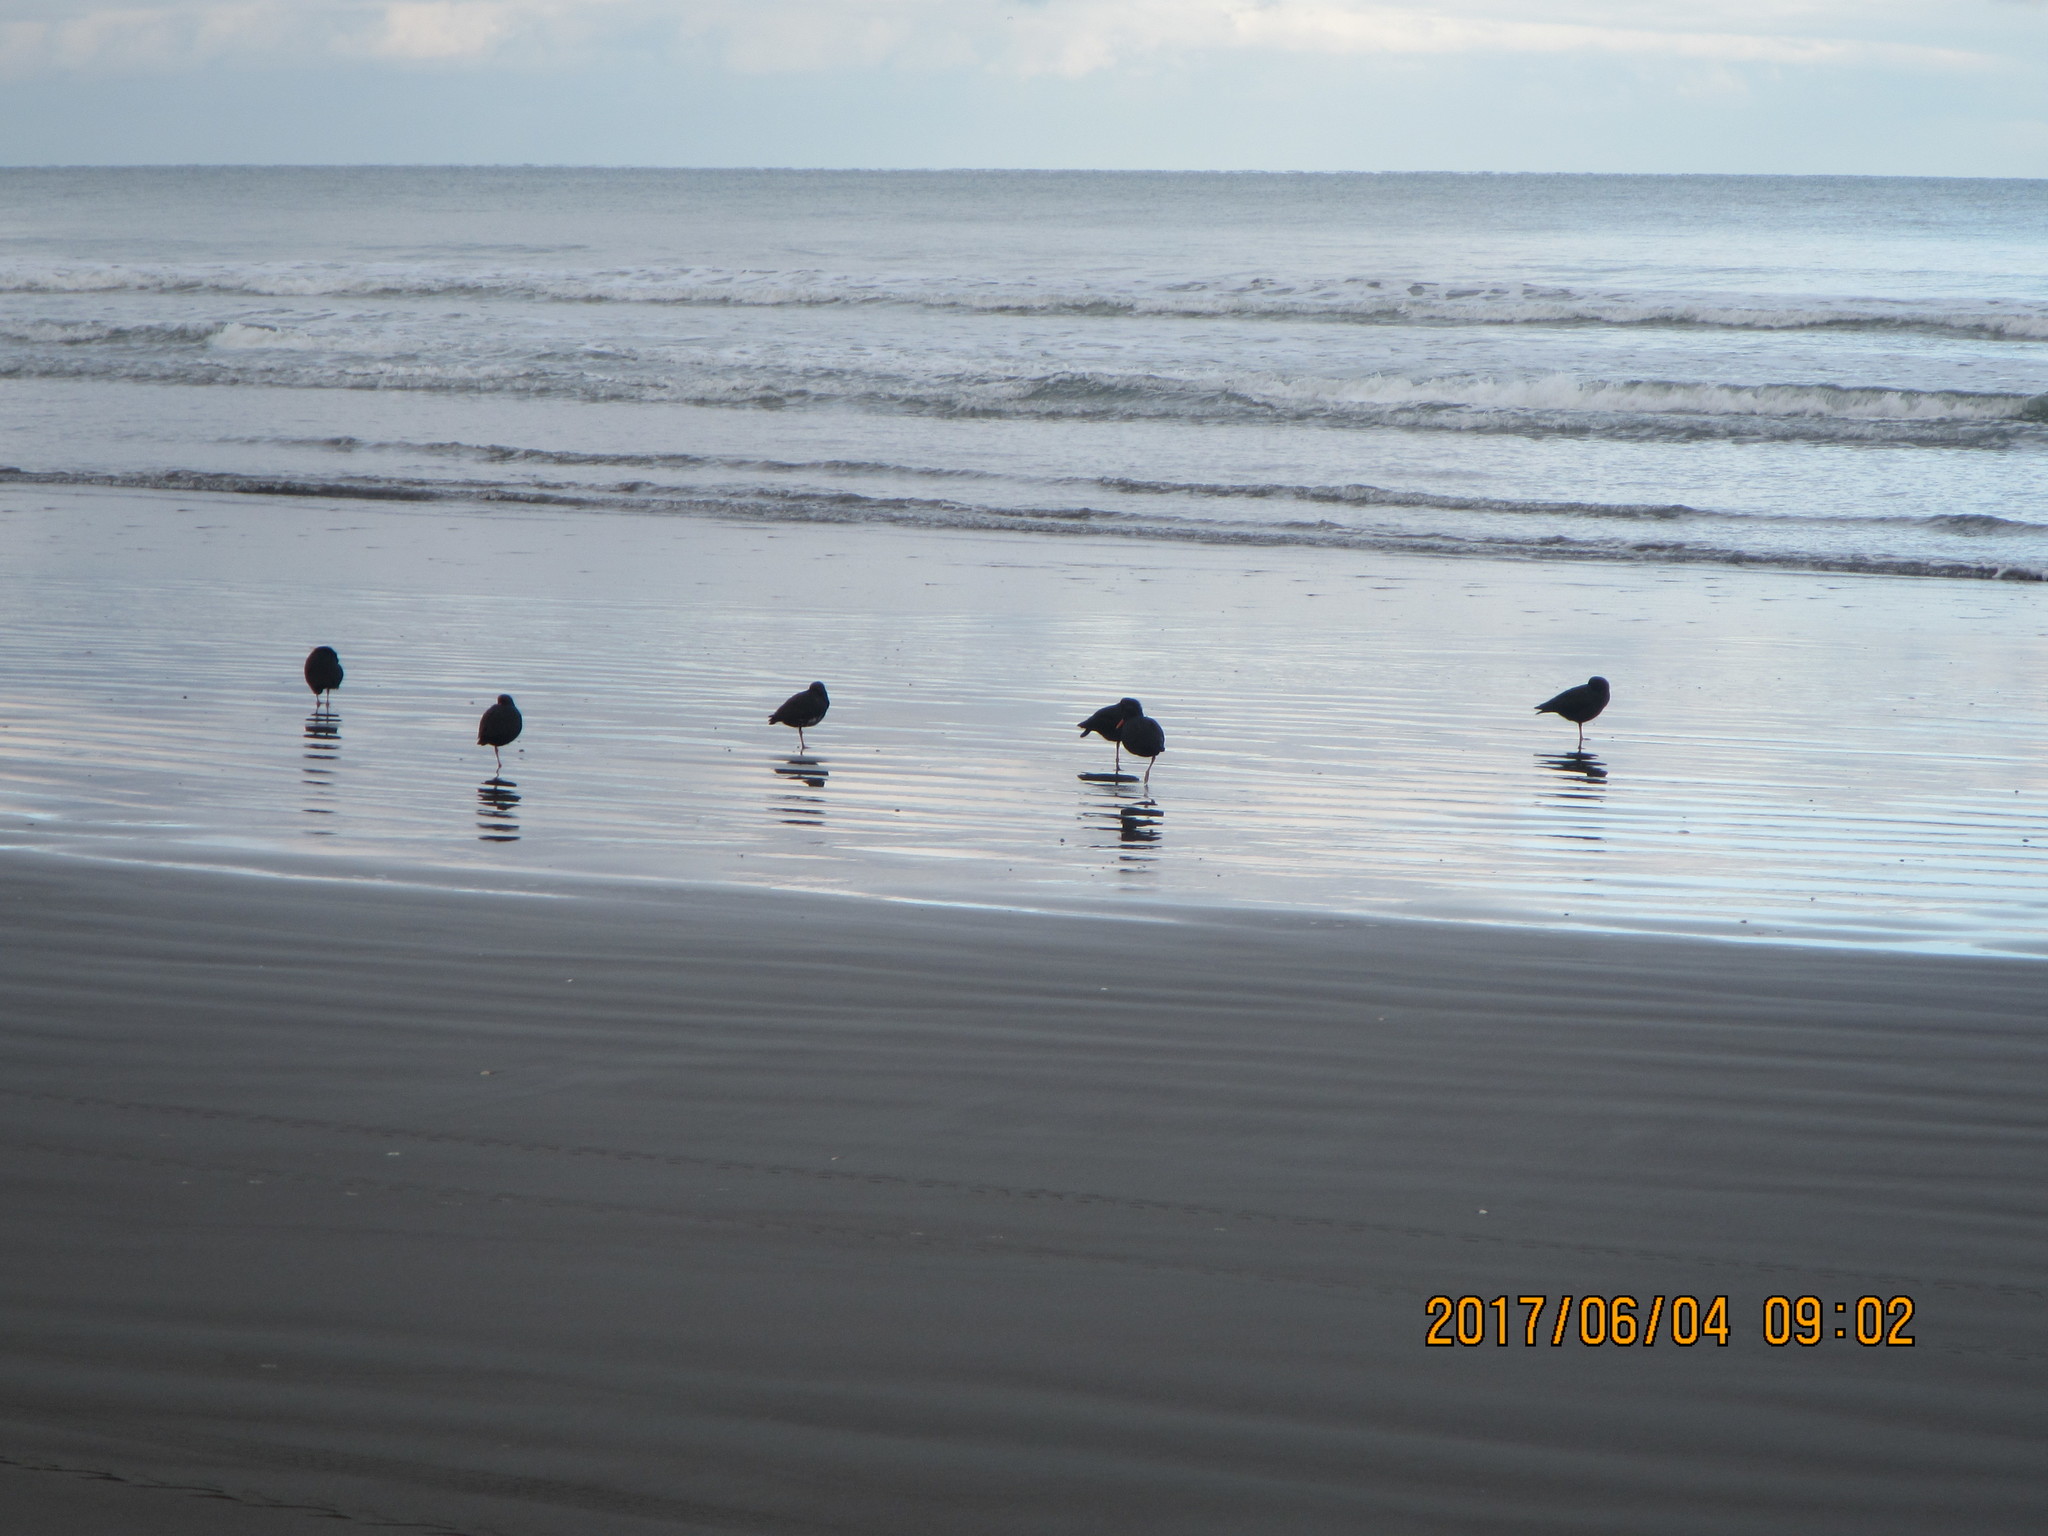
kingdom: Animalia
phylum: Chordata
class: Aves
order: Charadriiformes
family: Haematopodidae
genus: Haematopus
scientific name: Haematopus unicolor
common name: Variable oystercatcher
